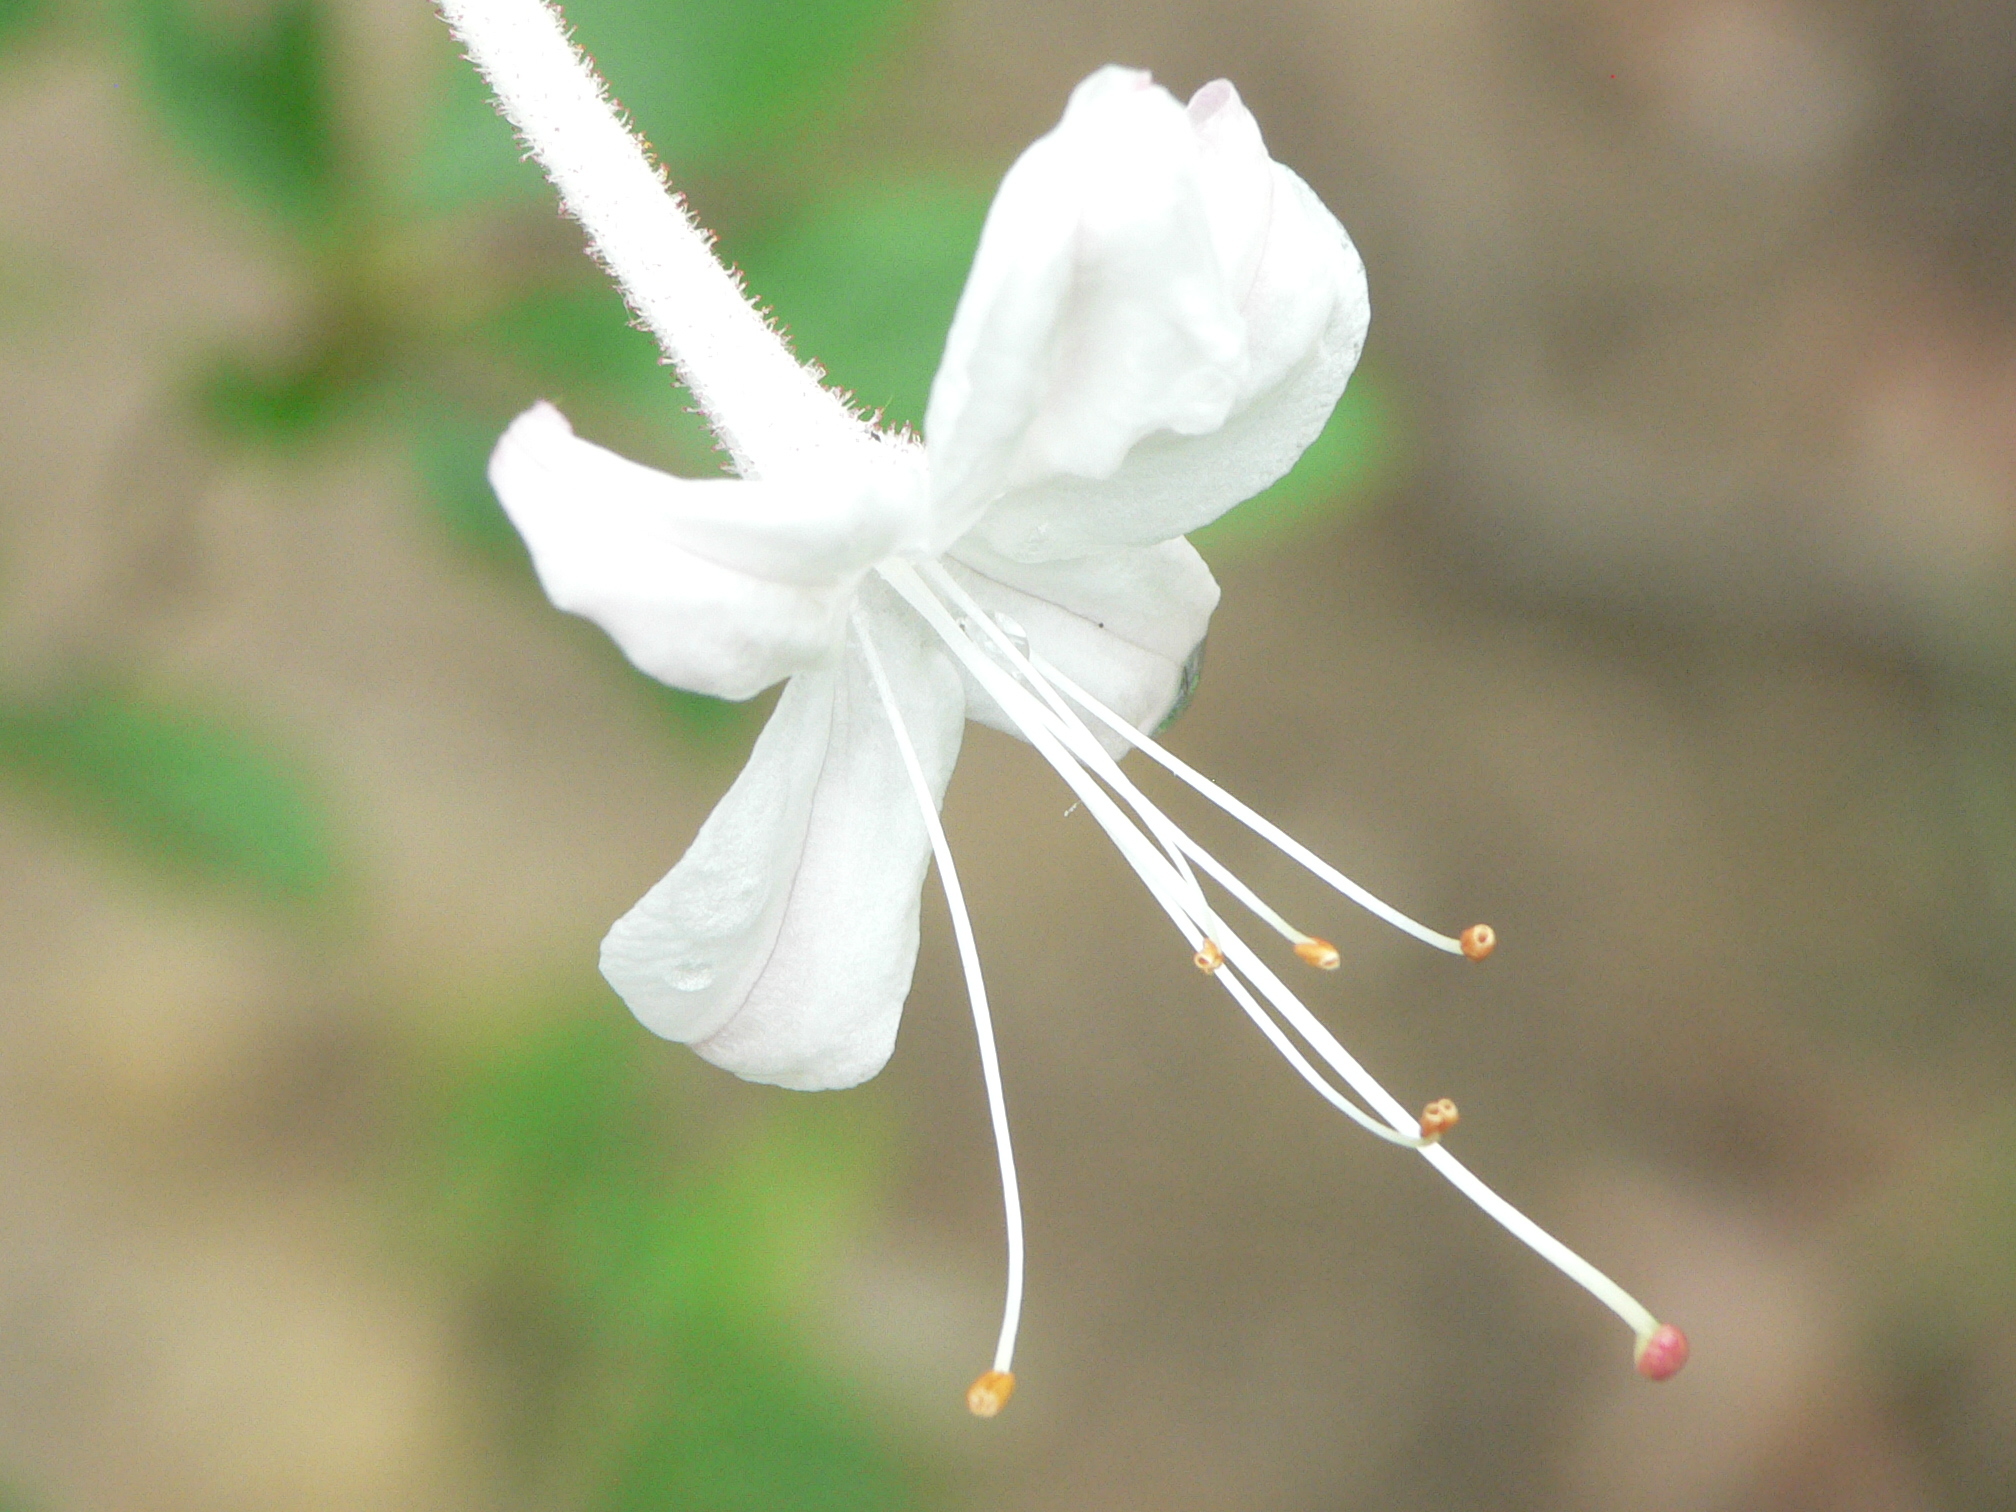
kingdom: Plantae
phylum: Tracheophyta
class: Magnoliopsida
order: Ericales
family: Ericaceae
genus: Rhododendron
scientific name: Rhododendron viscosum
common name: Clammy azalea
